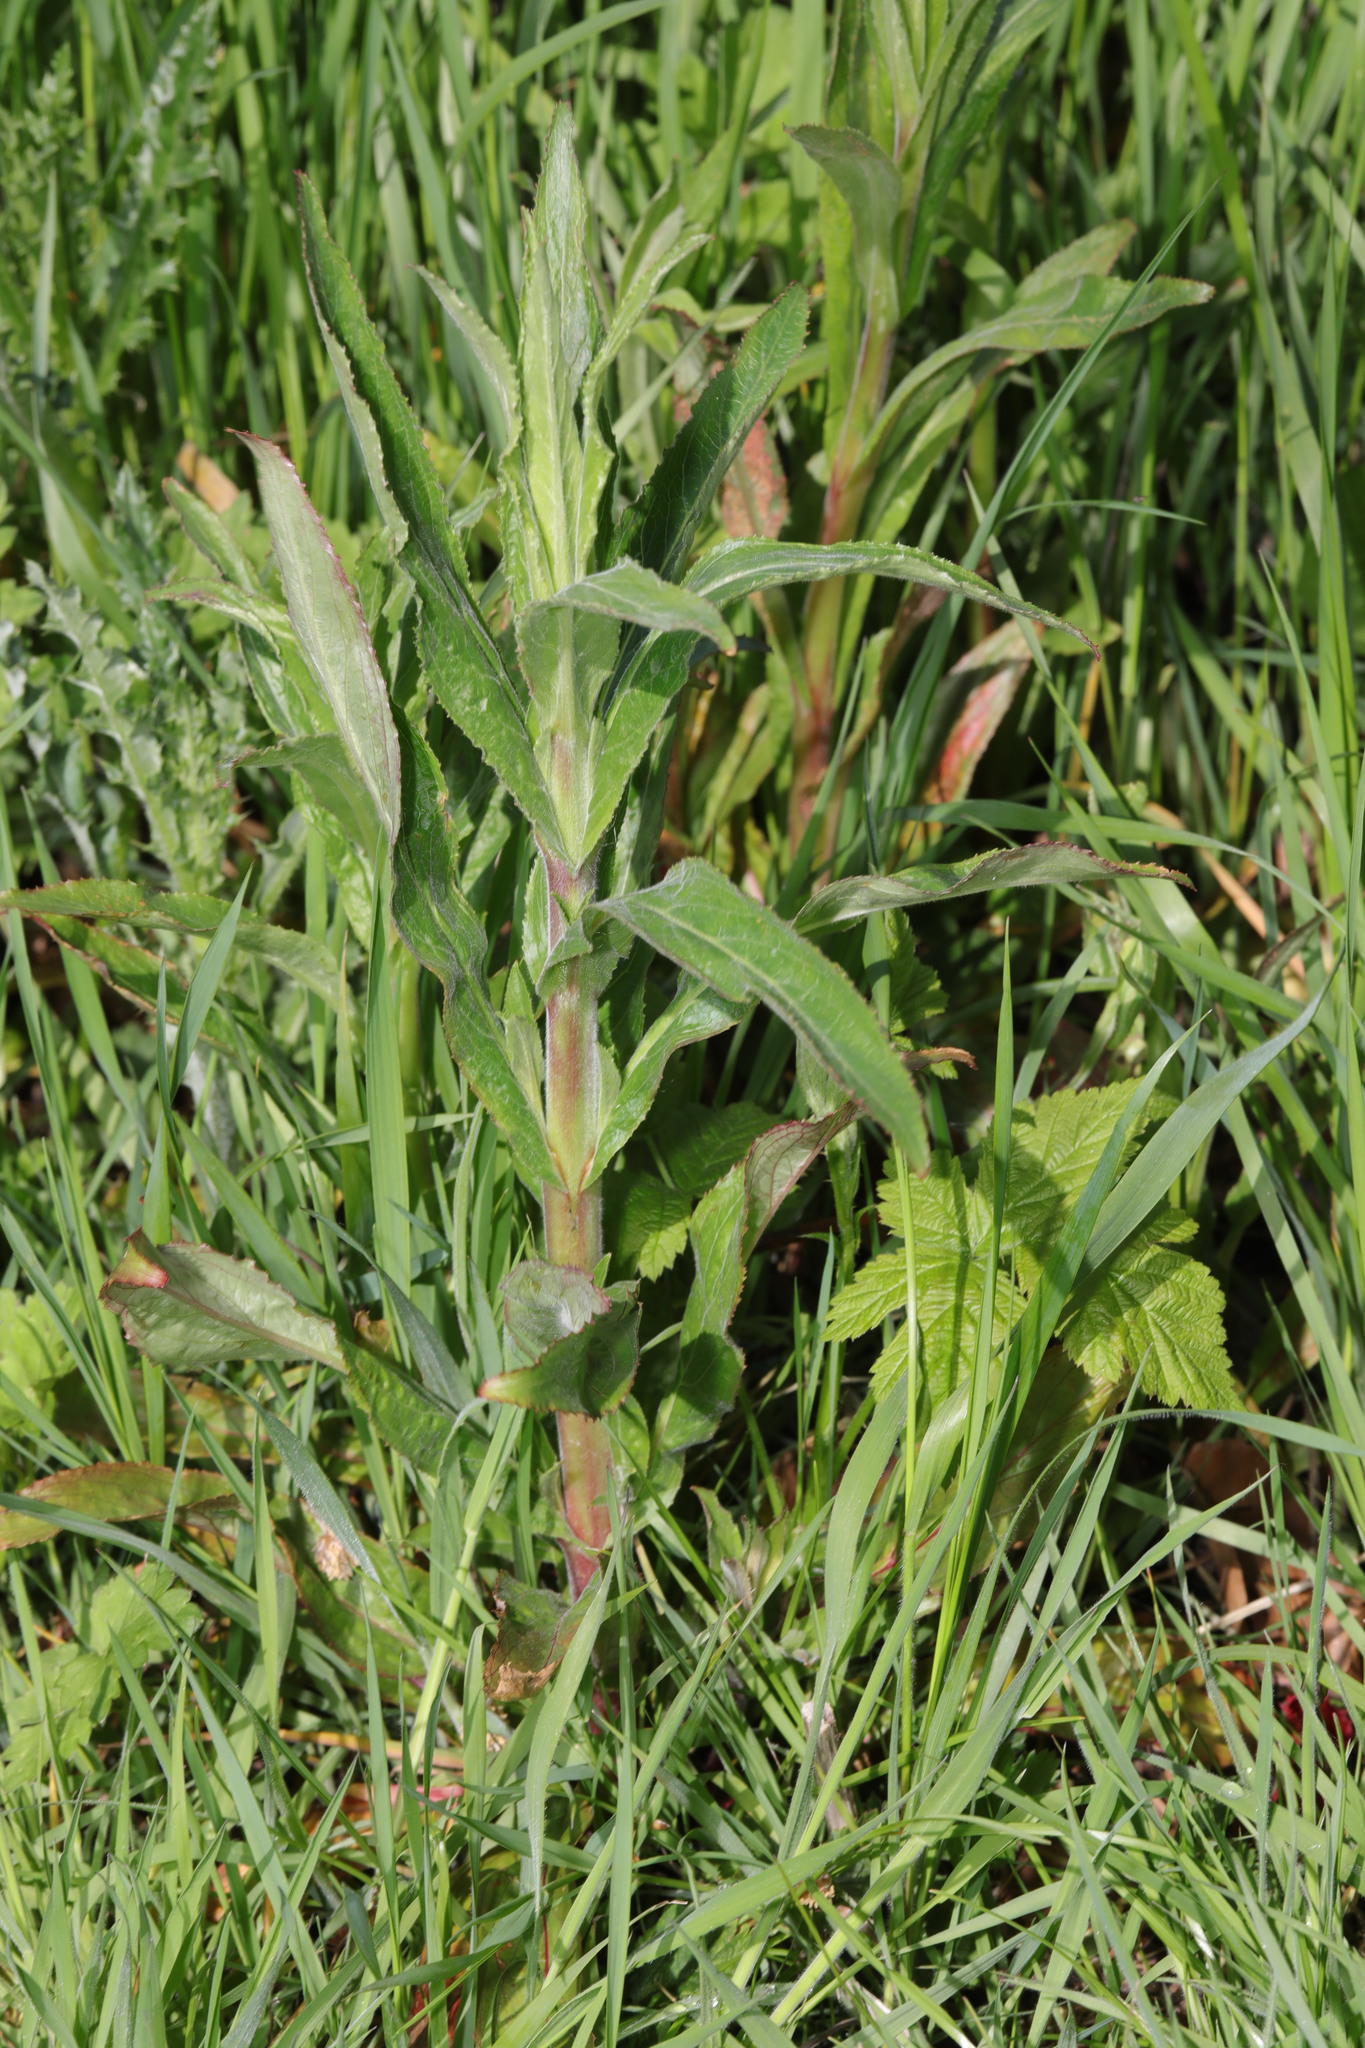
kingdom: Plantae
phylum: Tracheophyta
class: Magnoliopsida
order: Myrtales
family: Onagraceae
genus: Epilobium
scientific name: Epilobium hirsutum
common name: Great willowherb
